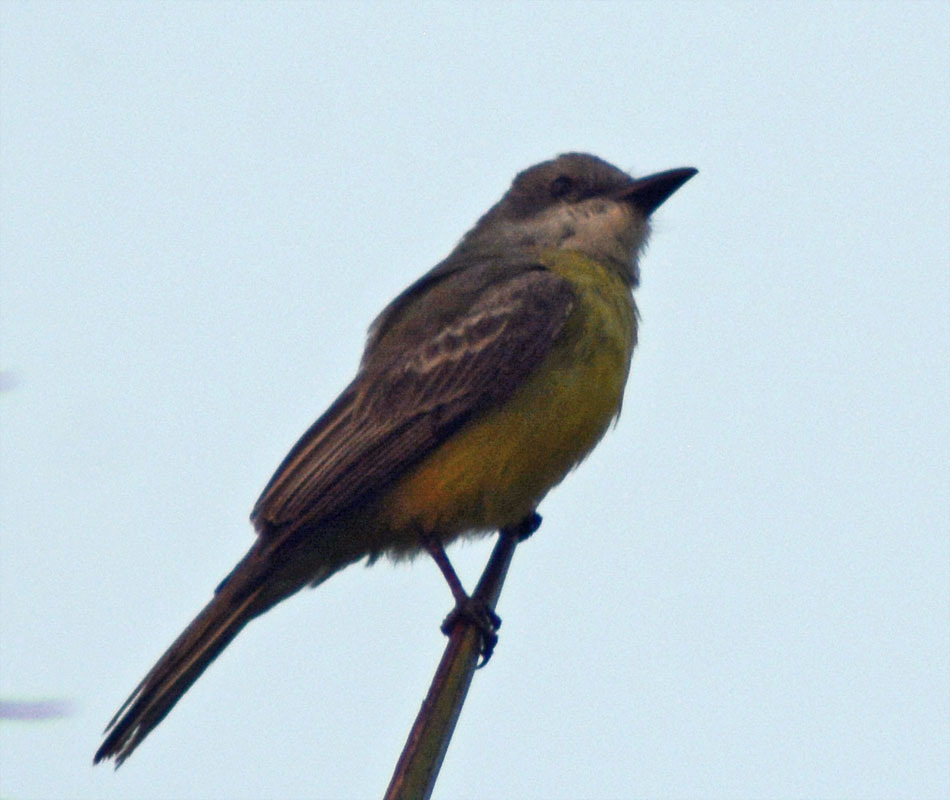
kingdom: Animalia
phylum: Chordata
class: Aves
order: Passeriformes
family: Tyrannidae
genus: Tyrannus
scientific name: Tyrannus melancholicus
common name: Tropical kingbird
